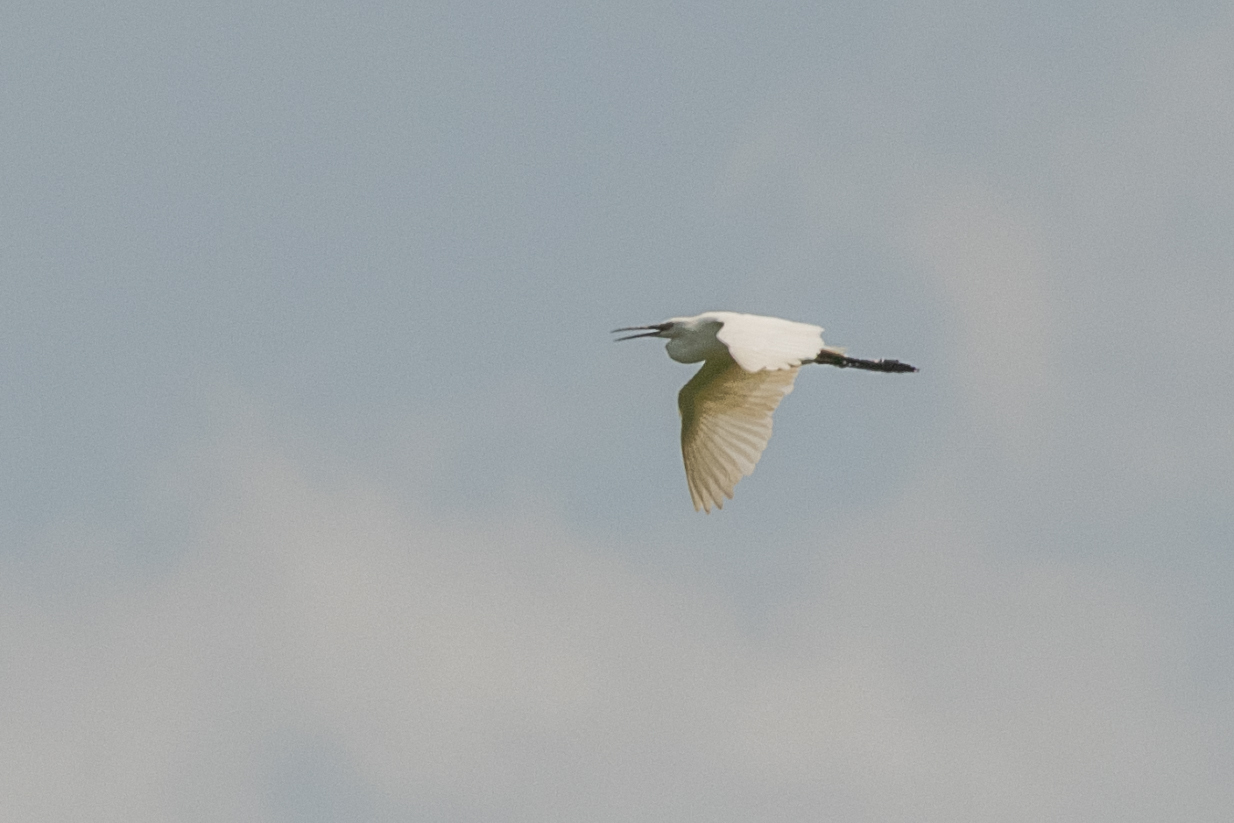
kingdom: Animalia
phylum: Chordata
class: Aves
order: Pelecaniformes
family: Ardeidae
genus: Egretta
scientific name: Egretta garzetta
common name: Little egret
